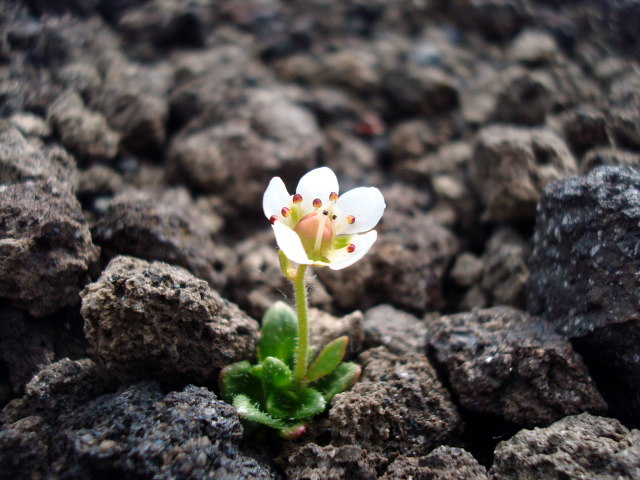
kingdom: Plantae
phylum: Tracheophyta
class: Magnoliopsida
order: Saxifragales
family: Saxifragaceae
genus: Micranthes
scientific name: Micranthes merkii
